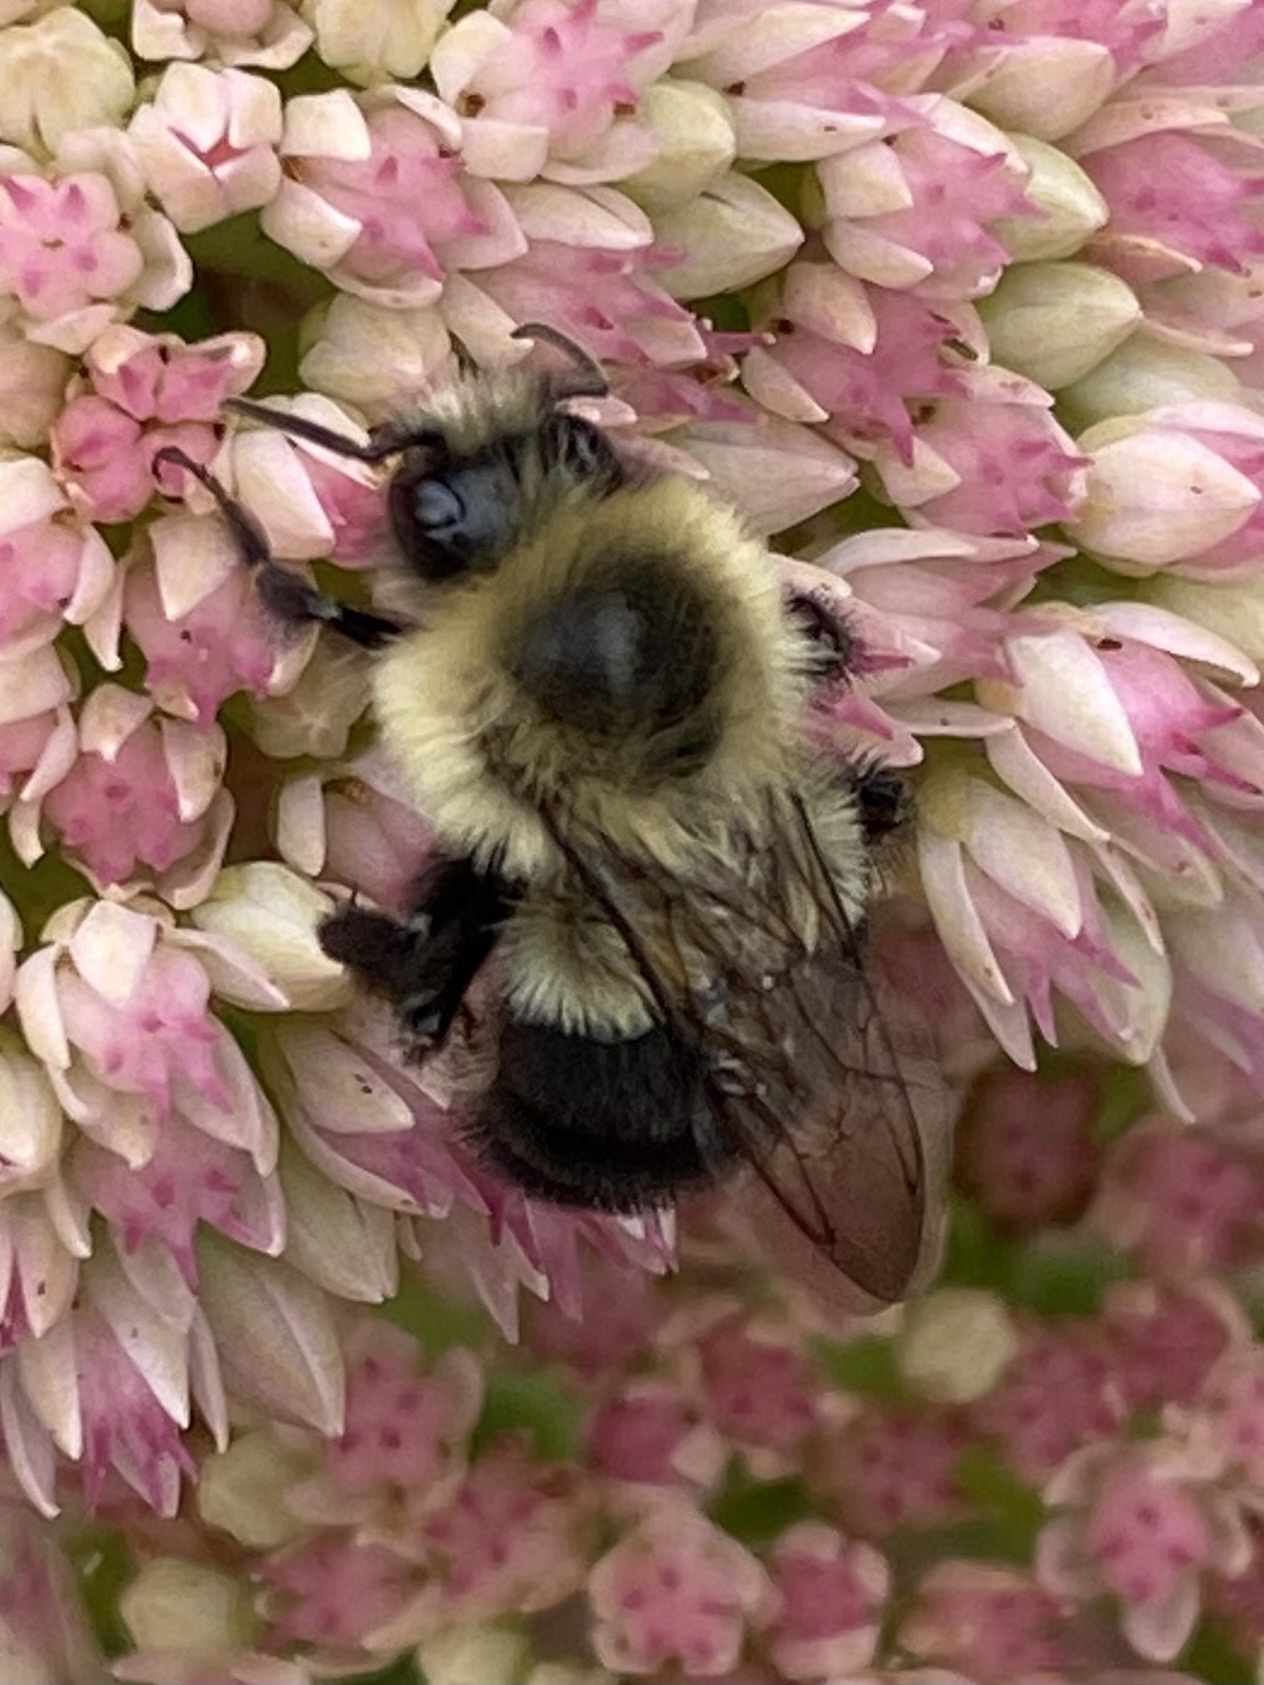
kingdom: Animalia
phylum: Arthropoda
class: Insecta
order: Hymenoptera
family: Apidae
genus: Bombus
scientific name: Bombus impatiens
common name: Common eastern bumble bee
